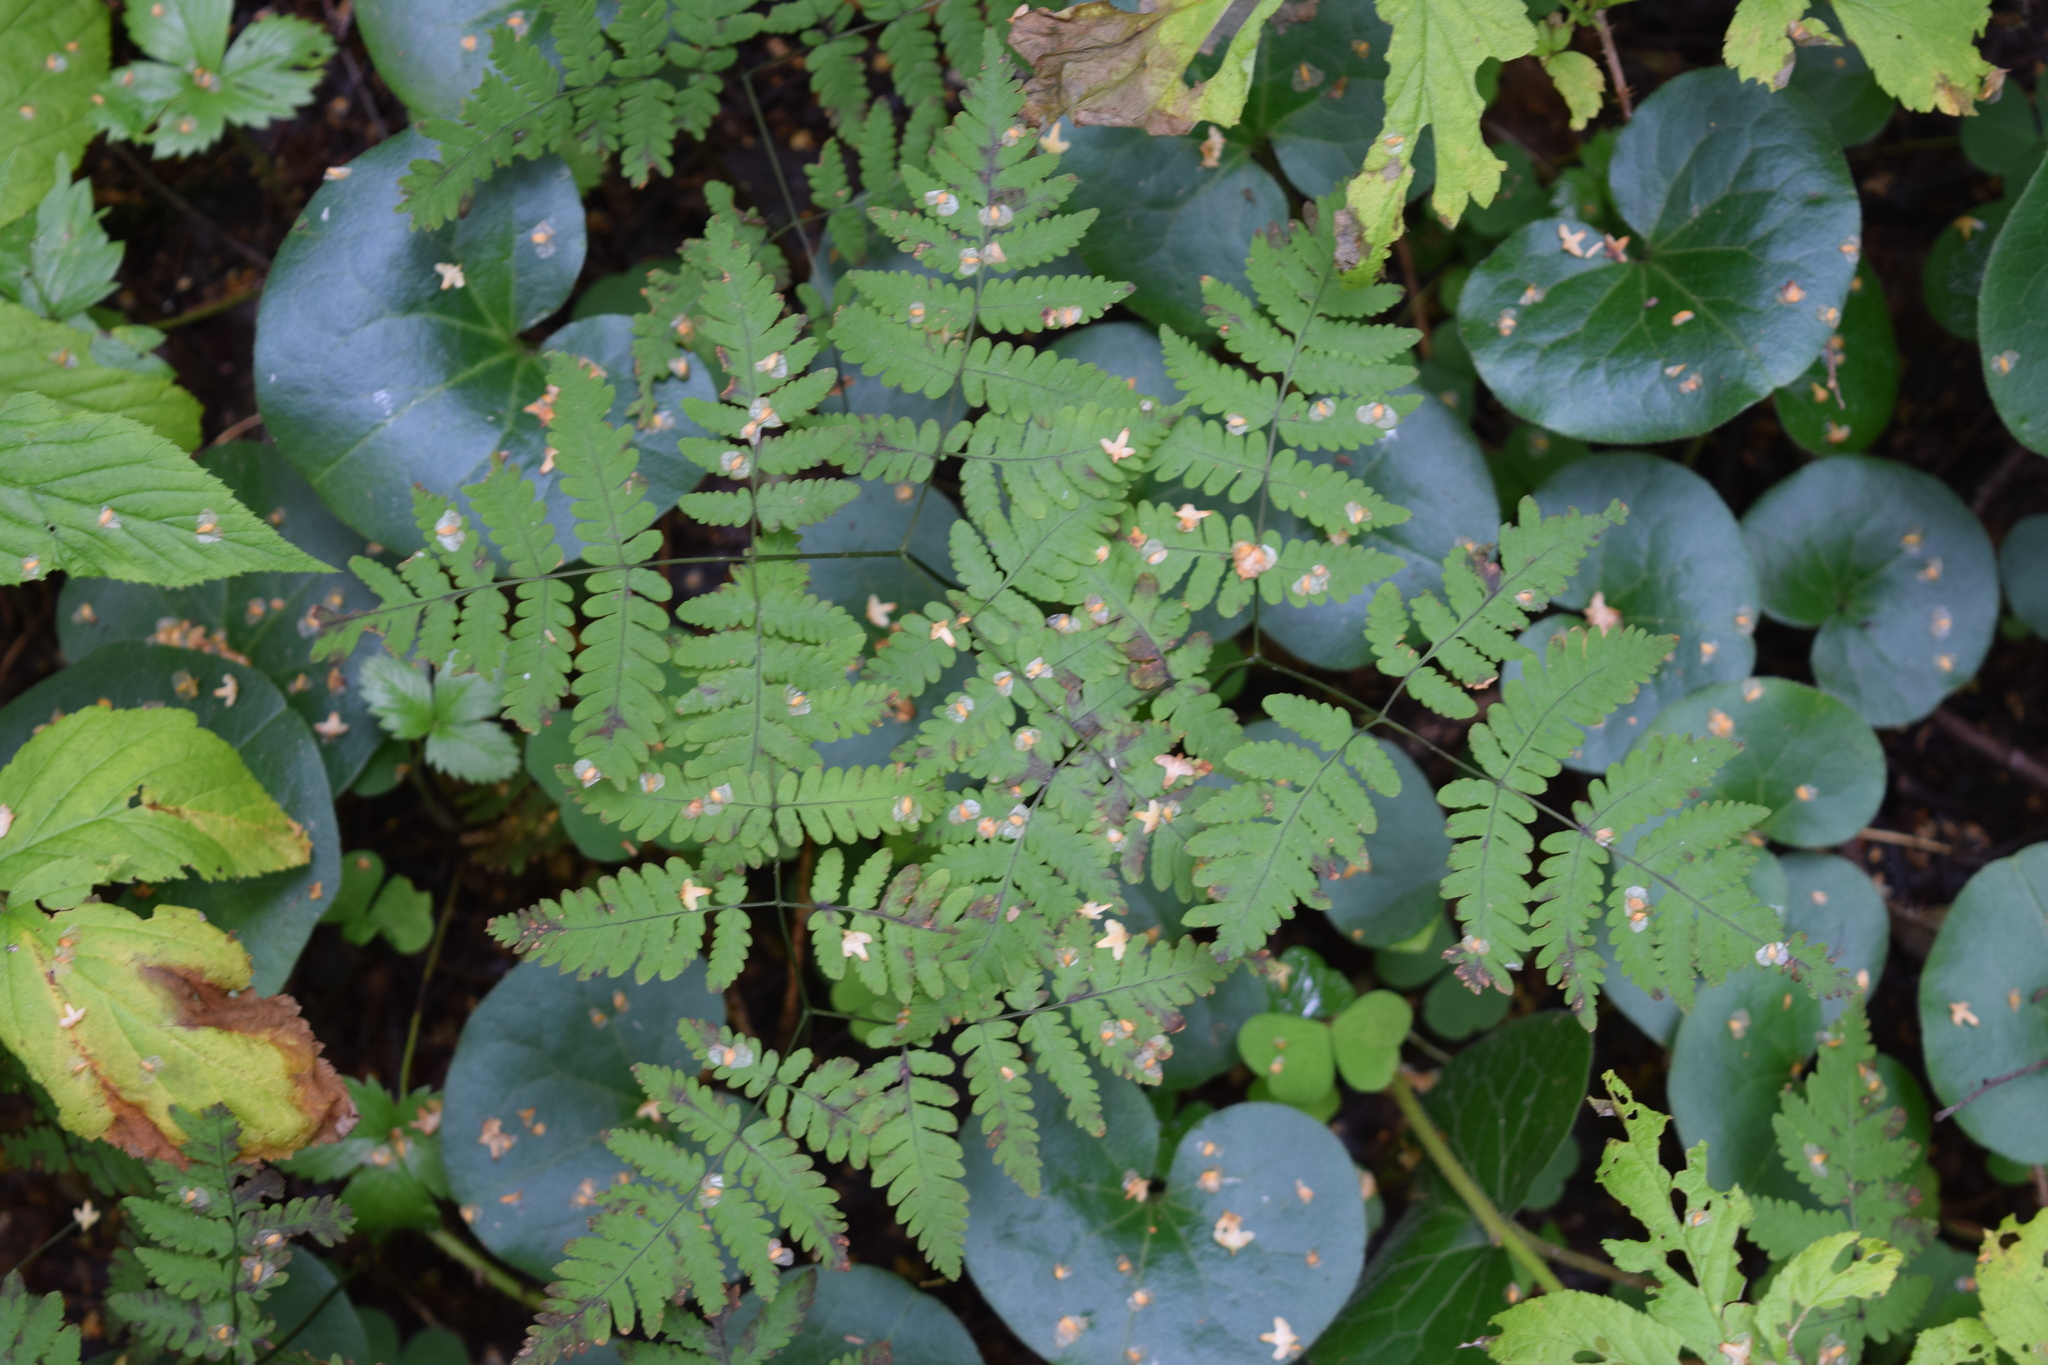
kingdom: Plantae
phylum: Tracheophyta
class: Polypodiopsida
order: Polypodiales
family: Cystopteridaceae
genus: Gymnocarpium
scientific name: Gymnocarpium dryopteris
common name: Oak fern
